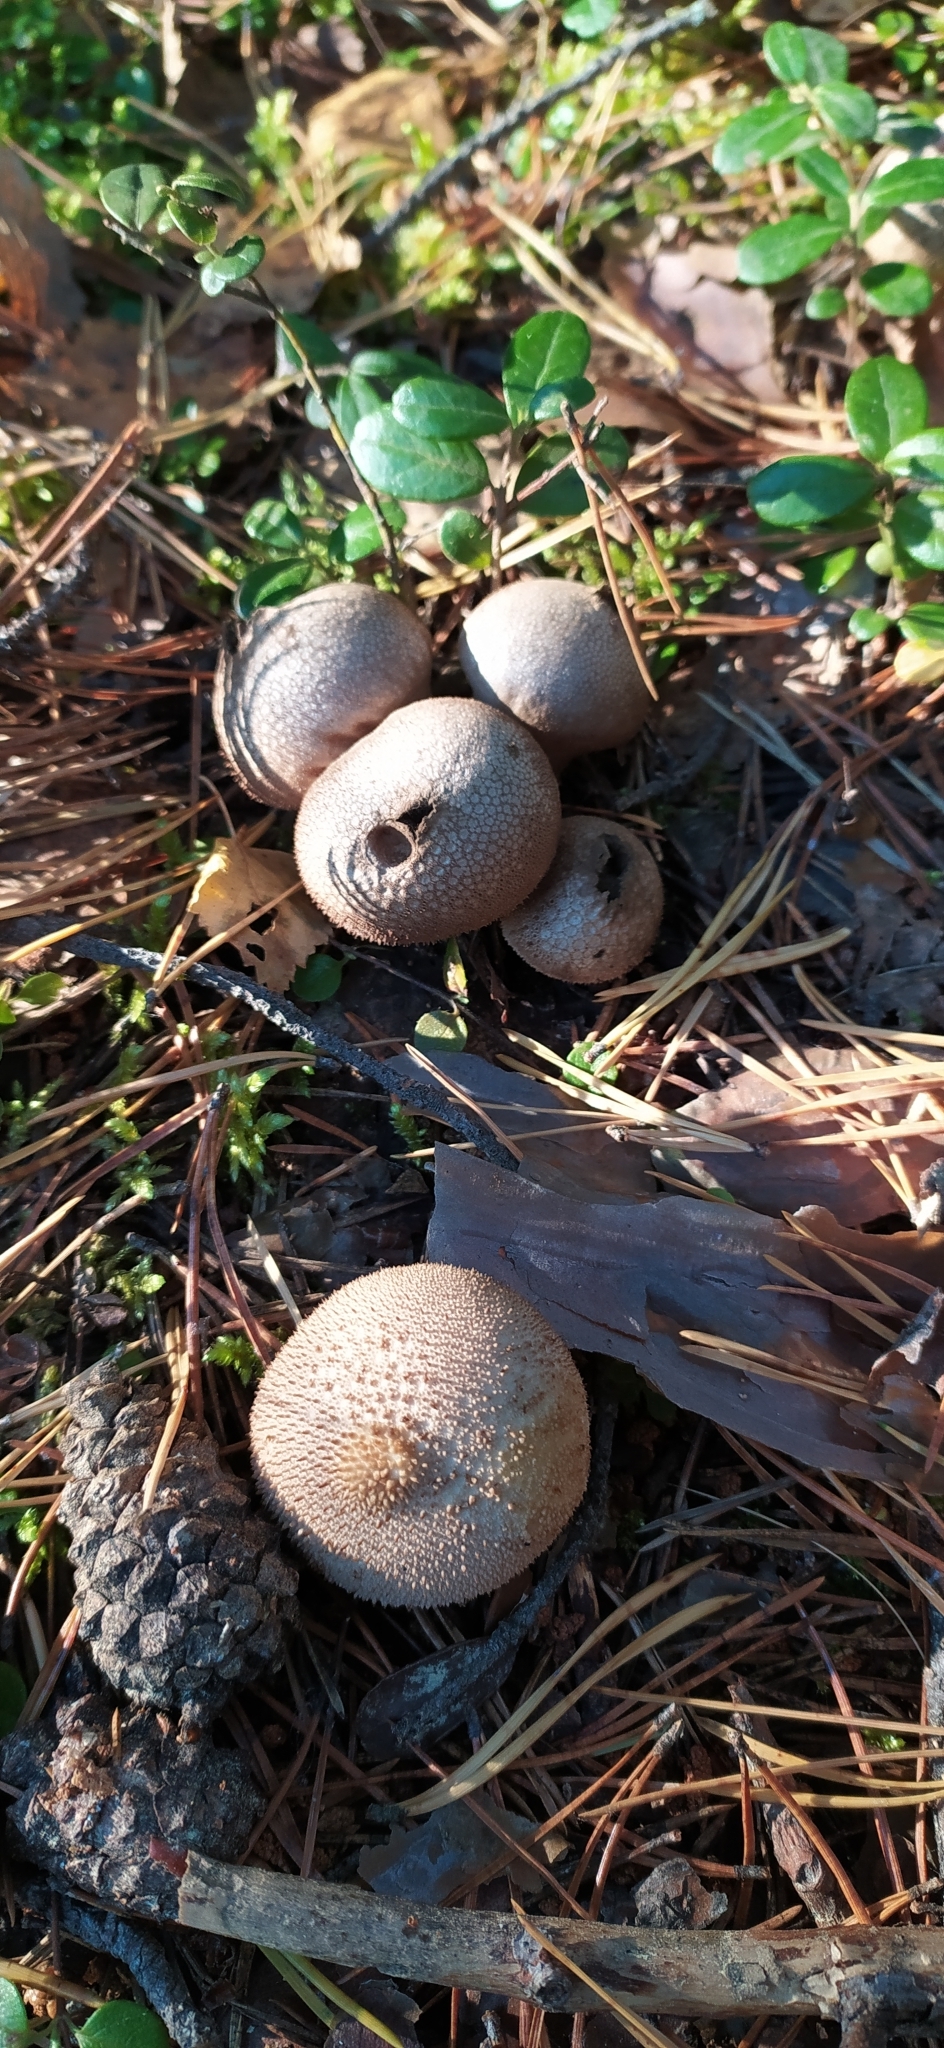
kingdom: Fungi
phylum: Basidiomycota
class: Agaricomycetes
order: Agaricales
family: Lycoperdaceae
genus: Lycoperdon
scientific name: Lycoperdon perlatum
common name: Common puffball
